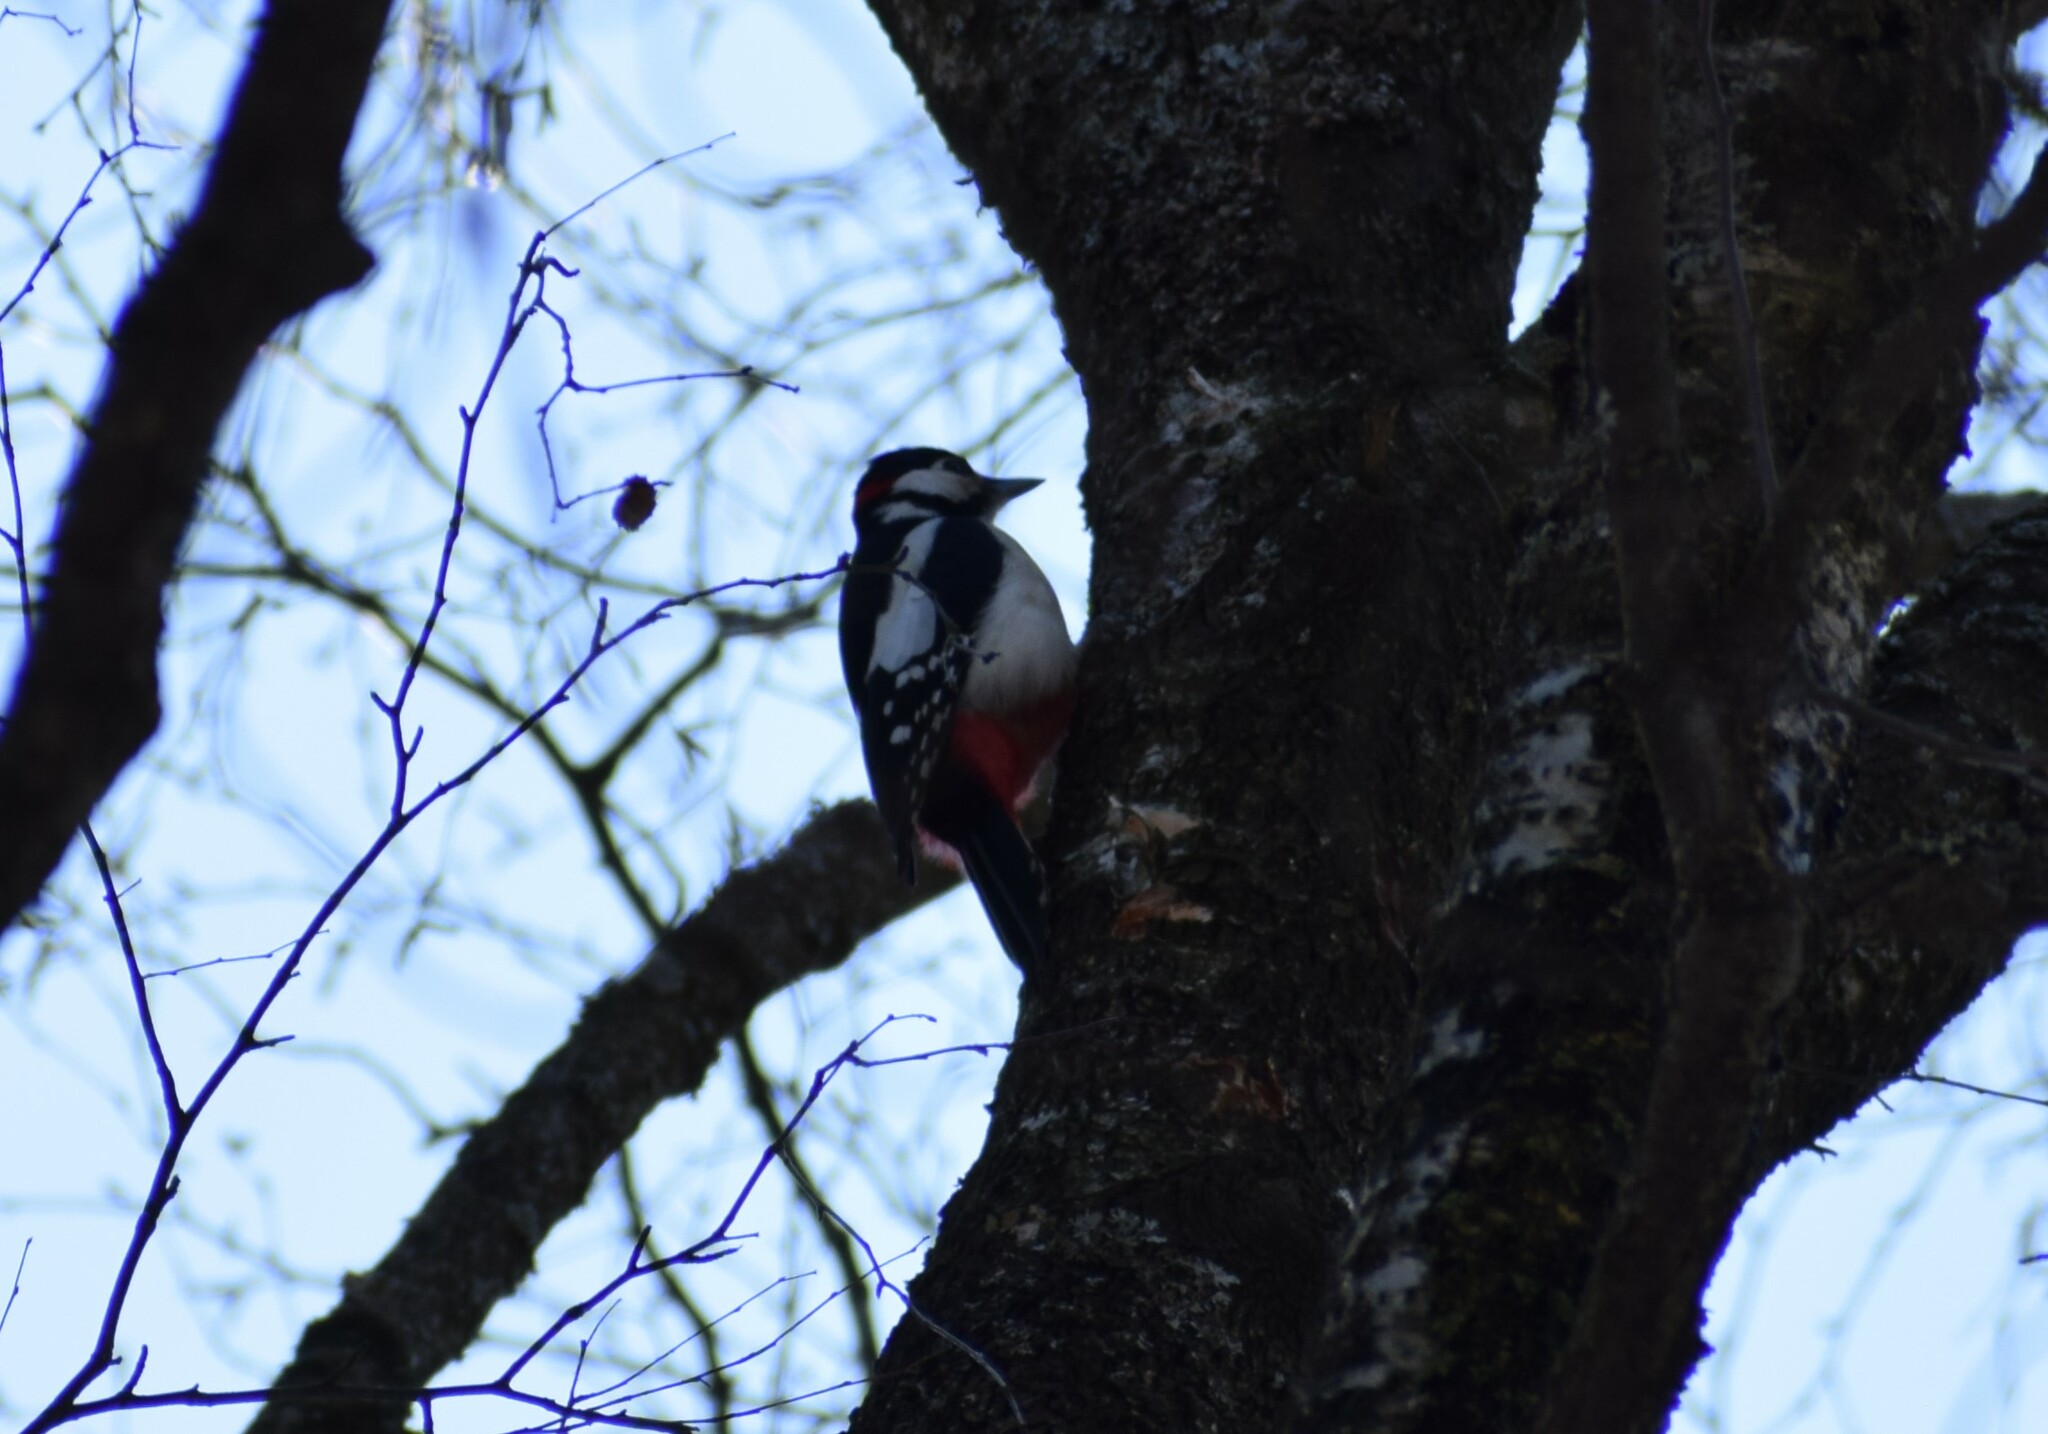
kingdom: Animalia
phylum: Chordata
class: Aves
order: Piciformes
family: Picidae
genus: Dendrocopos
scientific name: Dendrocopos major
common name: Great spotted woodpecker
